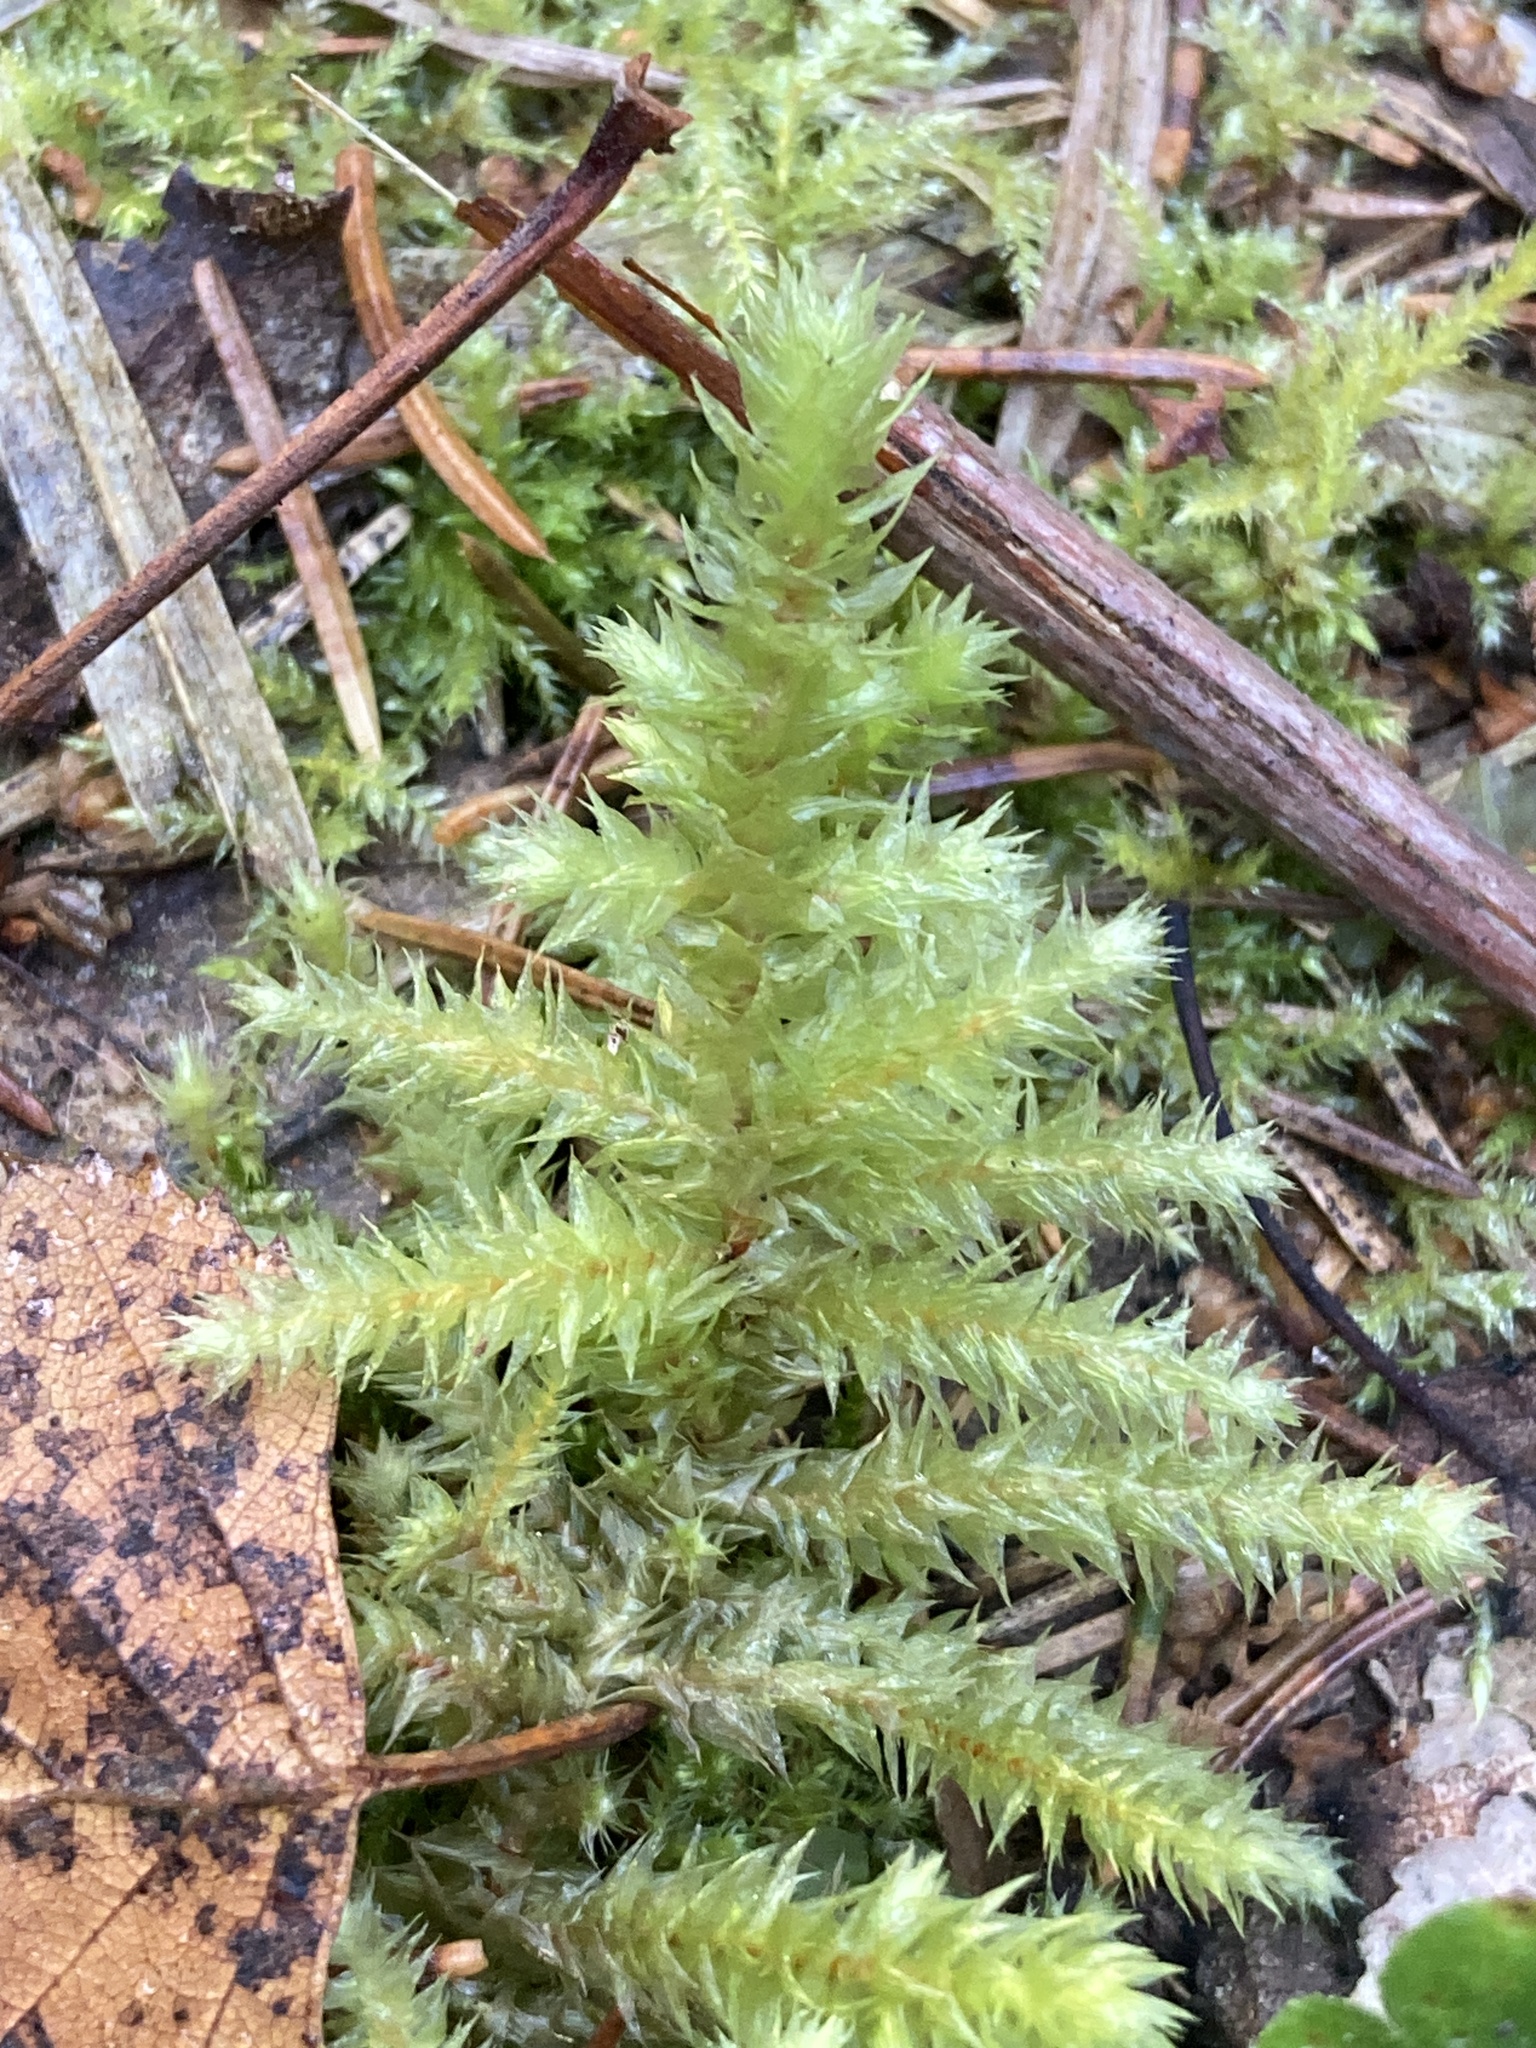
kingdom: Plantae
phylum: Bryophyta
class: Bryopsida
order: Hypnales
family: Hylocomiaceae
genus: Hylocomiadelphus
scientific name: Hylocomiadelphus triquetrus
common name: Rough goose neck moss
